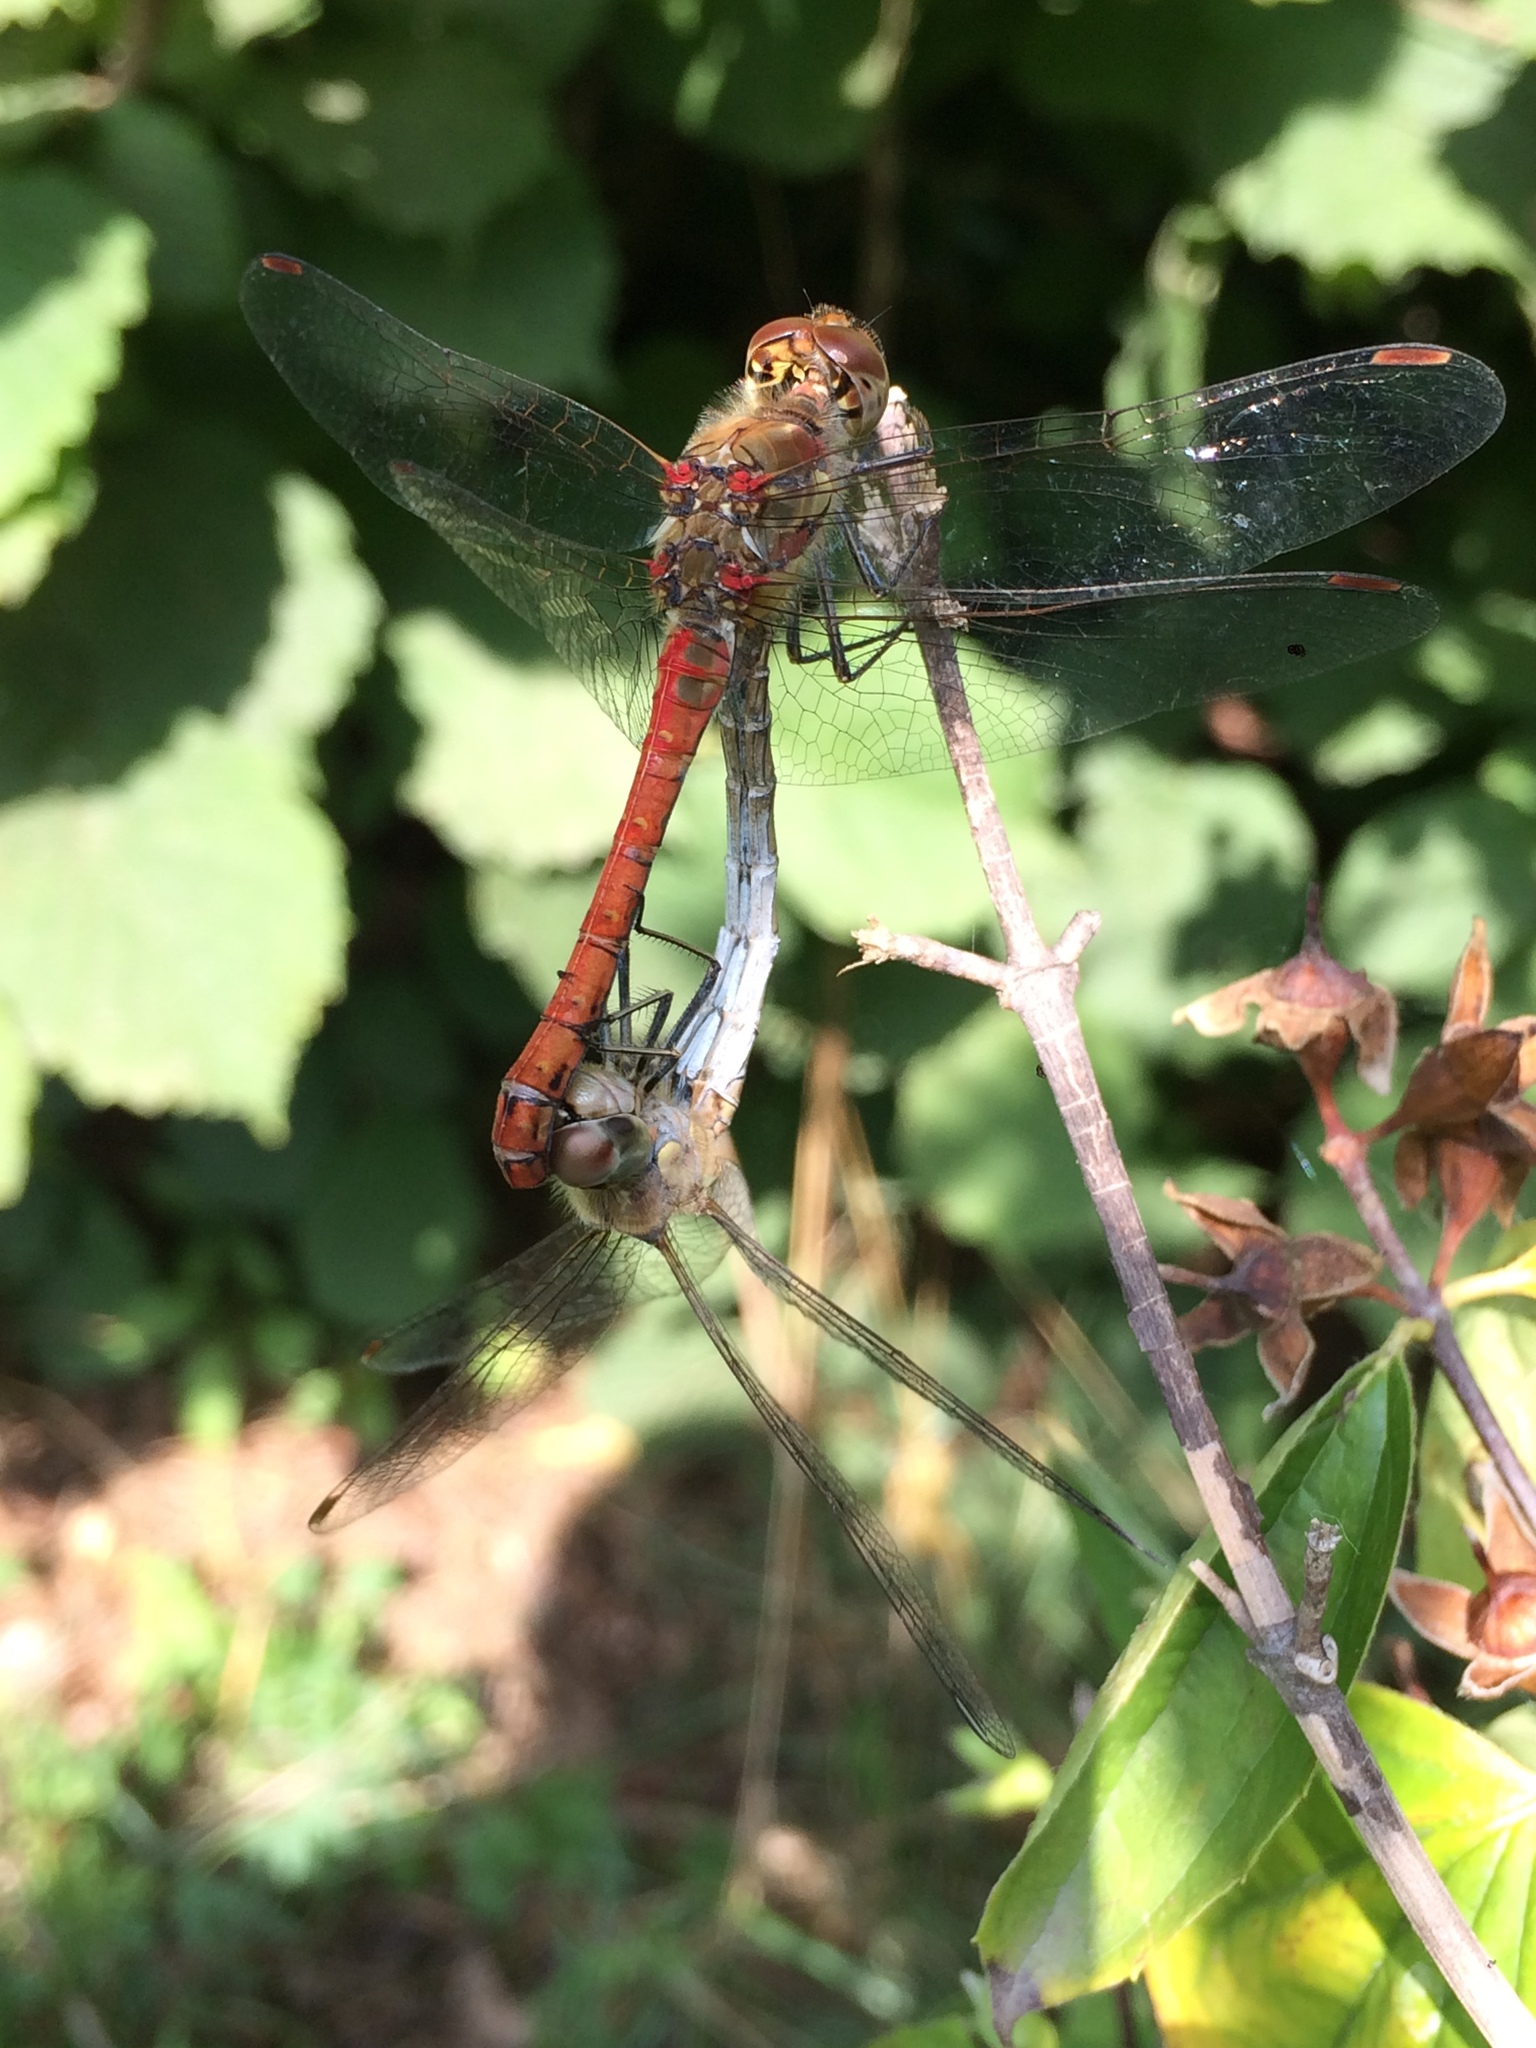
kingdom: Animalia
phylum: Arthropoda
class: Insecta
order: Odonata
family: Libellulidae
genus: Sympetrum
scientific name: Sympetrum striolatum
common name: Common darter
